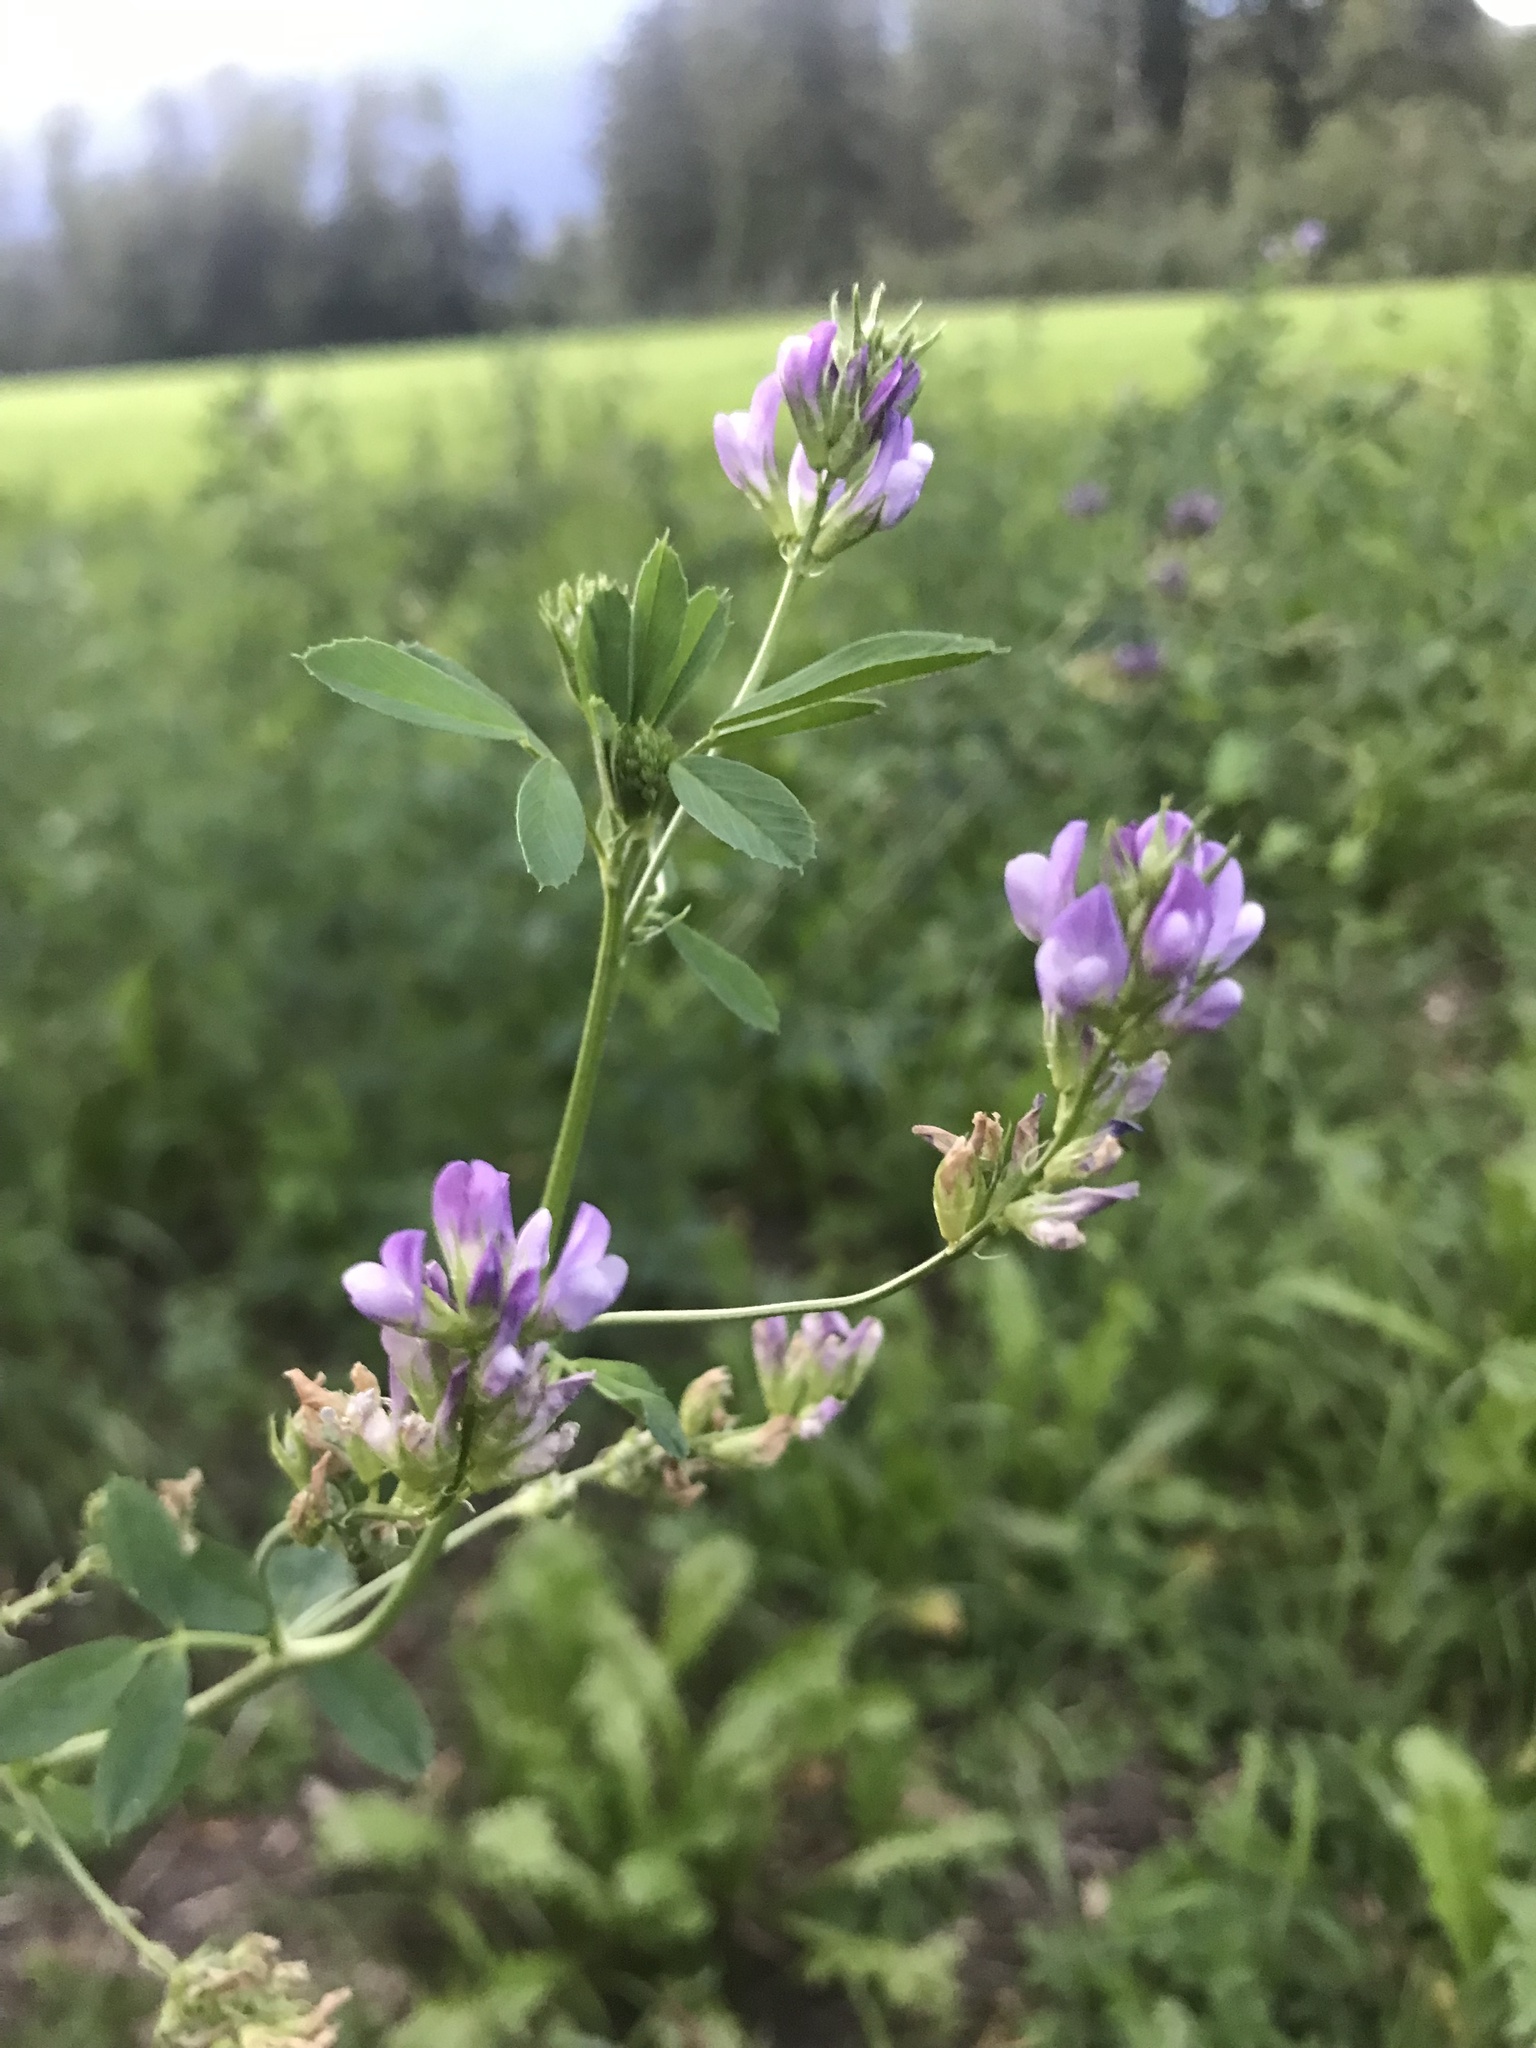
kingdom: Plantae
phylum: Tracheophyta
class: Magnoliopsida
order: Fabales
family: Fabaceae
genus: Medicago
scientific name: Medicago sativa
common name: Alfalfa
